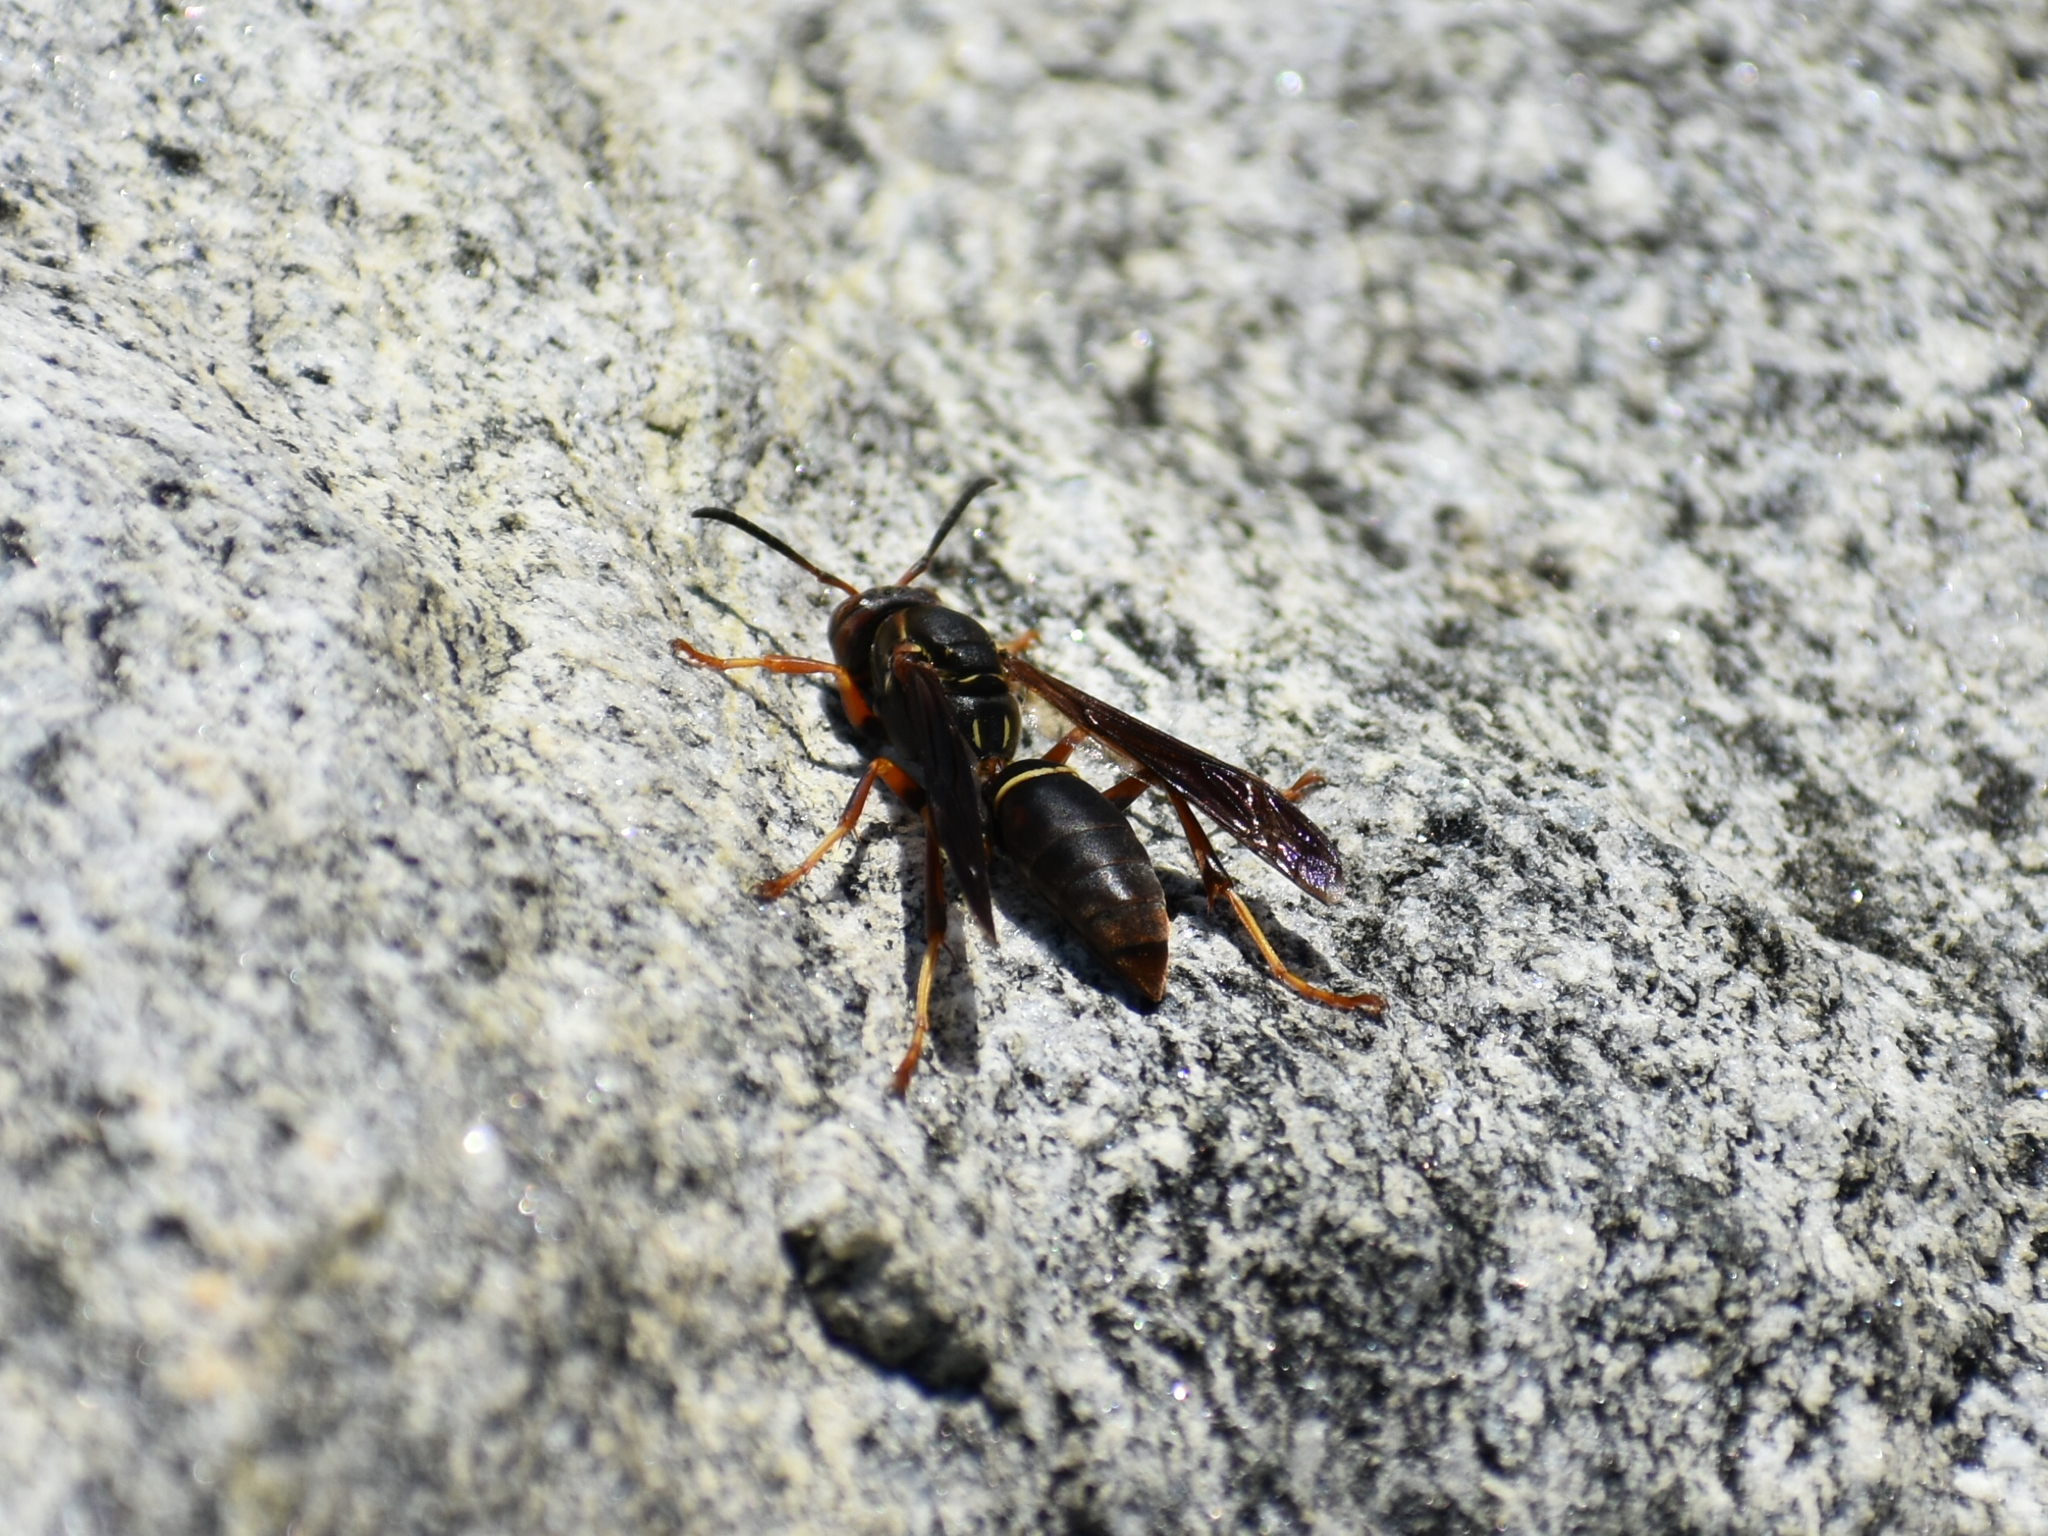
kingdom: Animalia
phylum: Arthropoda
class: Insecta
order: Hymenoptera
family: Eumenidae
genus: Polistes
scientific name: Polistes fuscatus
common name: Dark paper wasp
